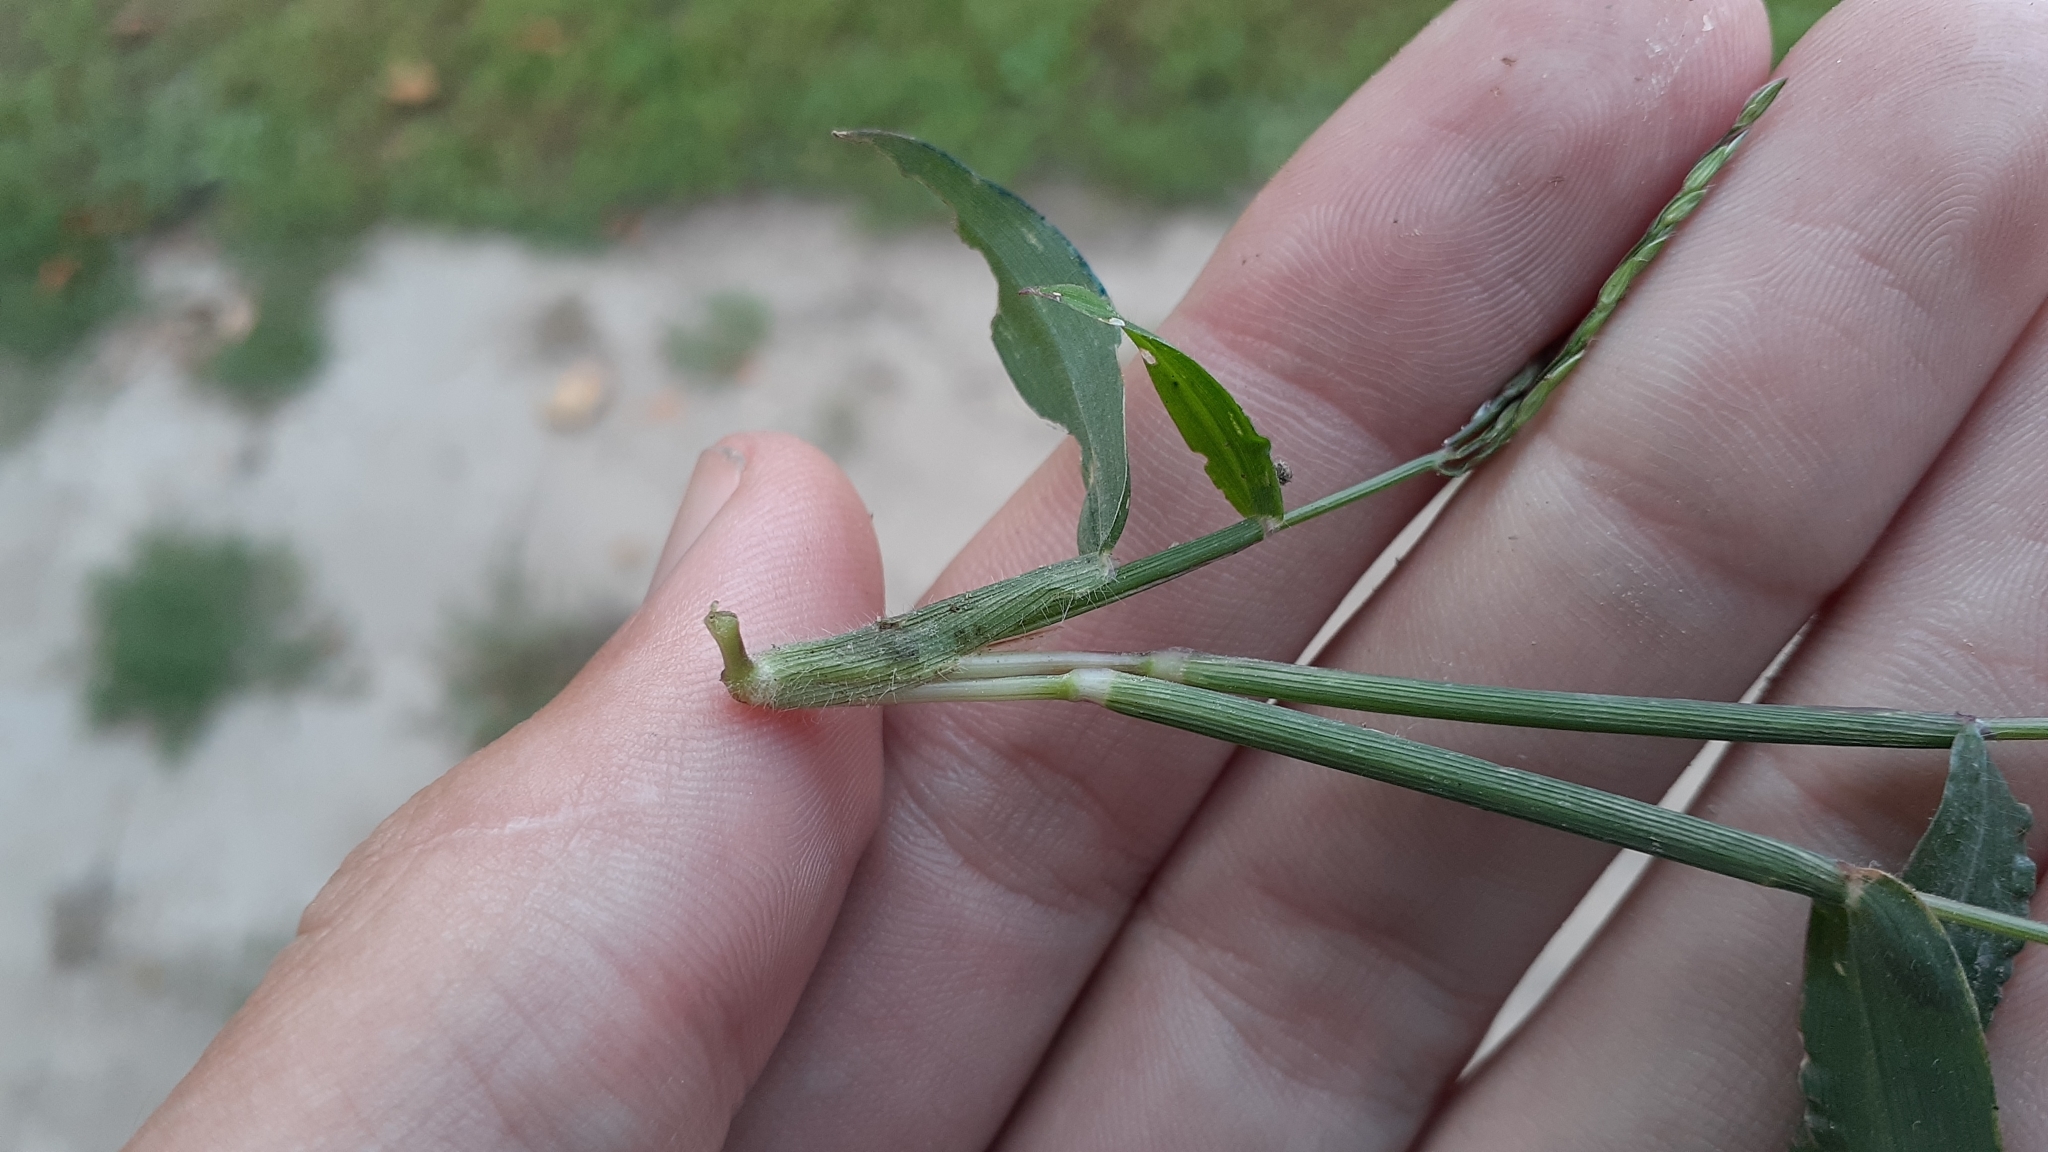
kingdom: Plantae
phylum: Tracheophyta
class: Liliopsida
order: Poales
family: Poaceae
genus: Digitaria
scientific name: Digitaria sanguinalis
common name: Hairy crabgrass
